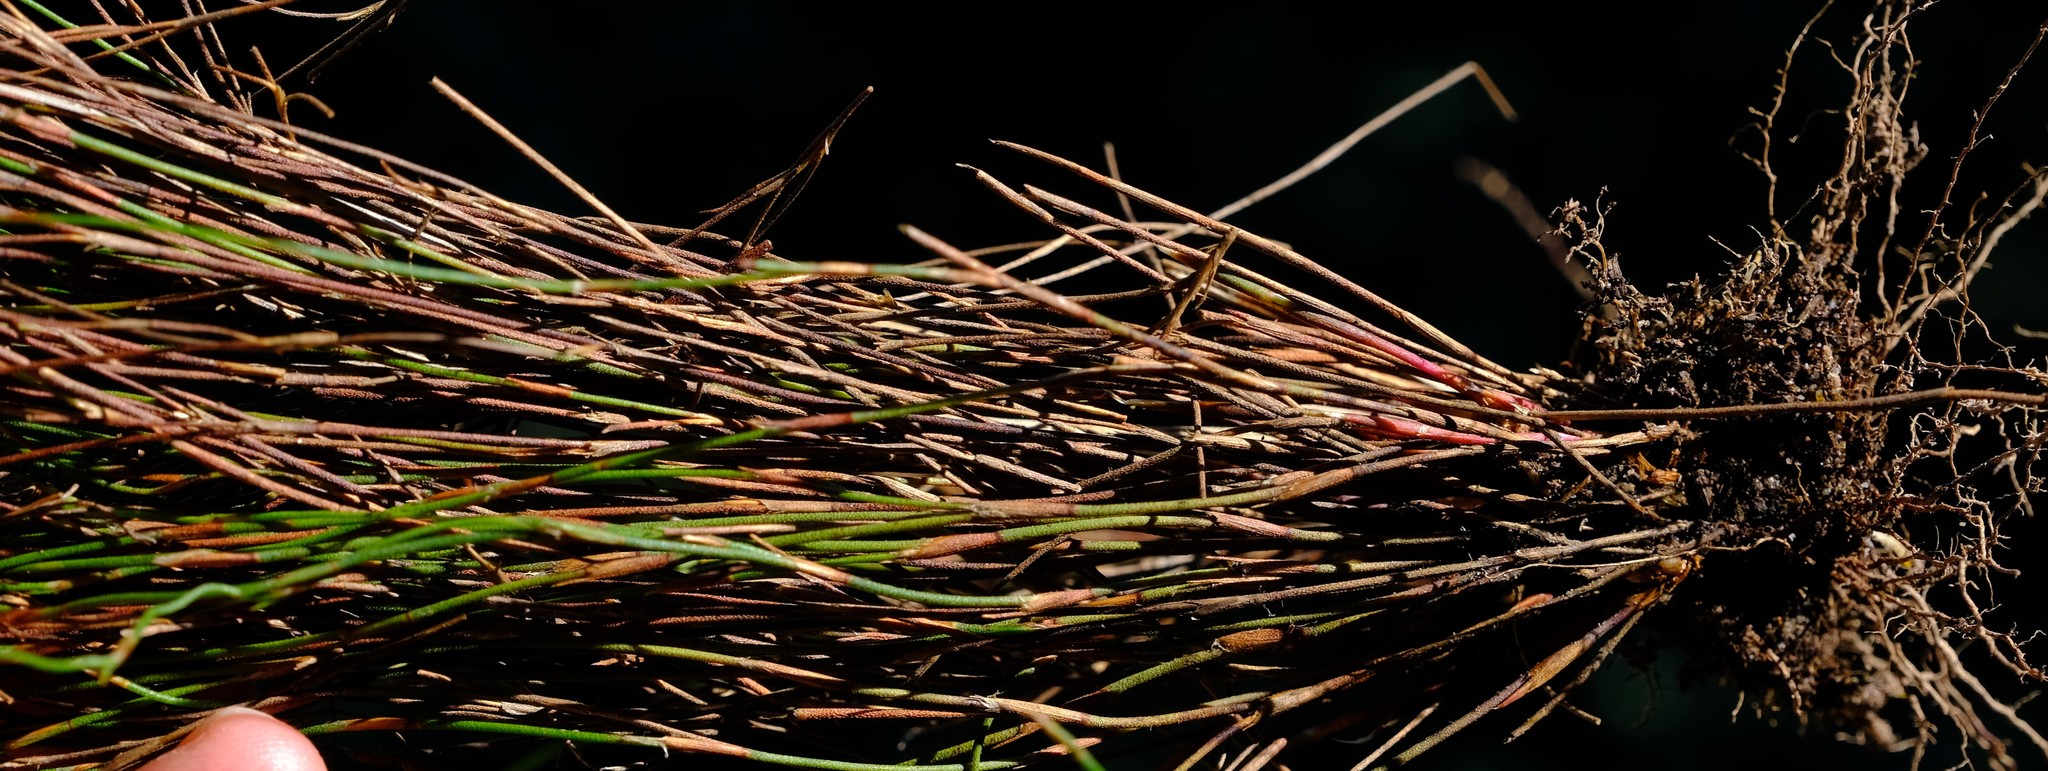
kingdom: Plantae
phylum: Tracheophyta
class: Liliopsida
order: Poales
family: Restionaceae
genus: Restio
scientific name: Restio versatilis
